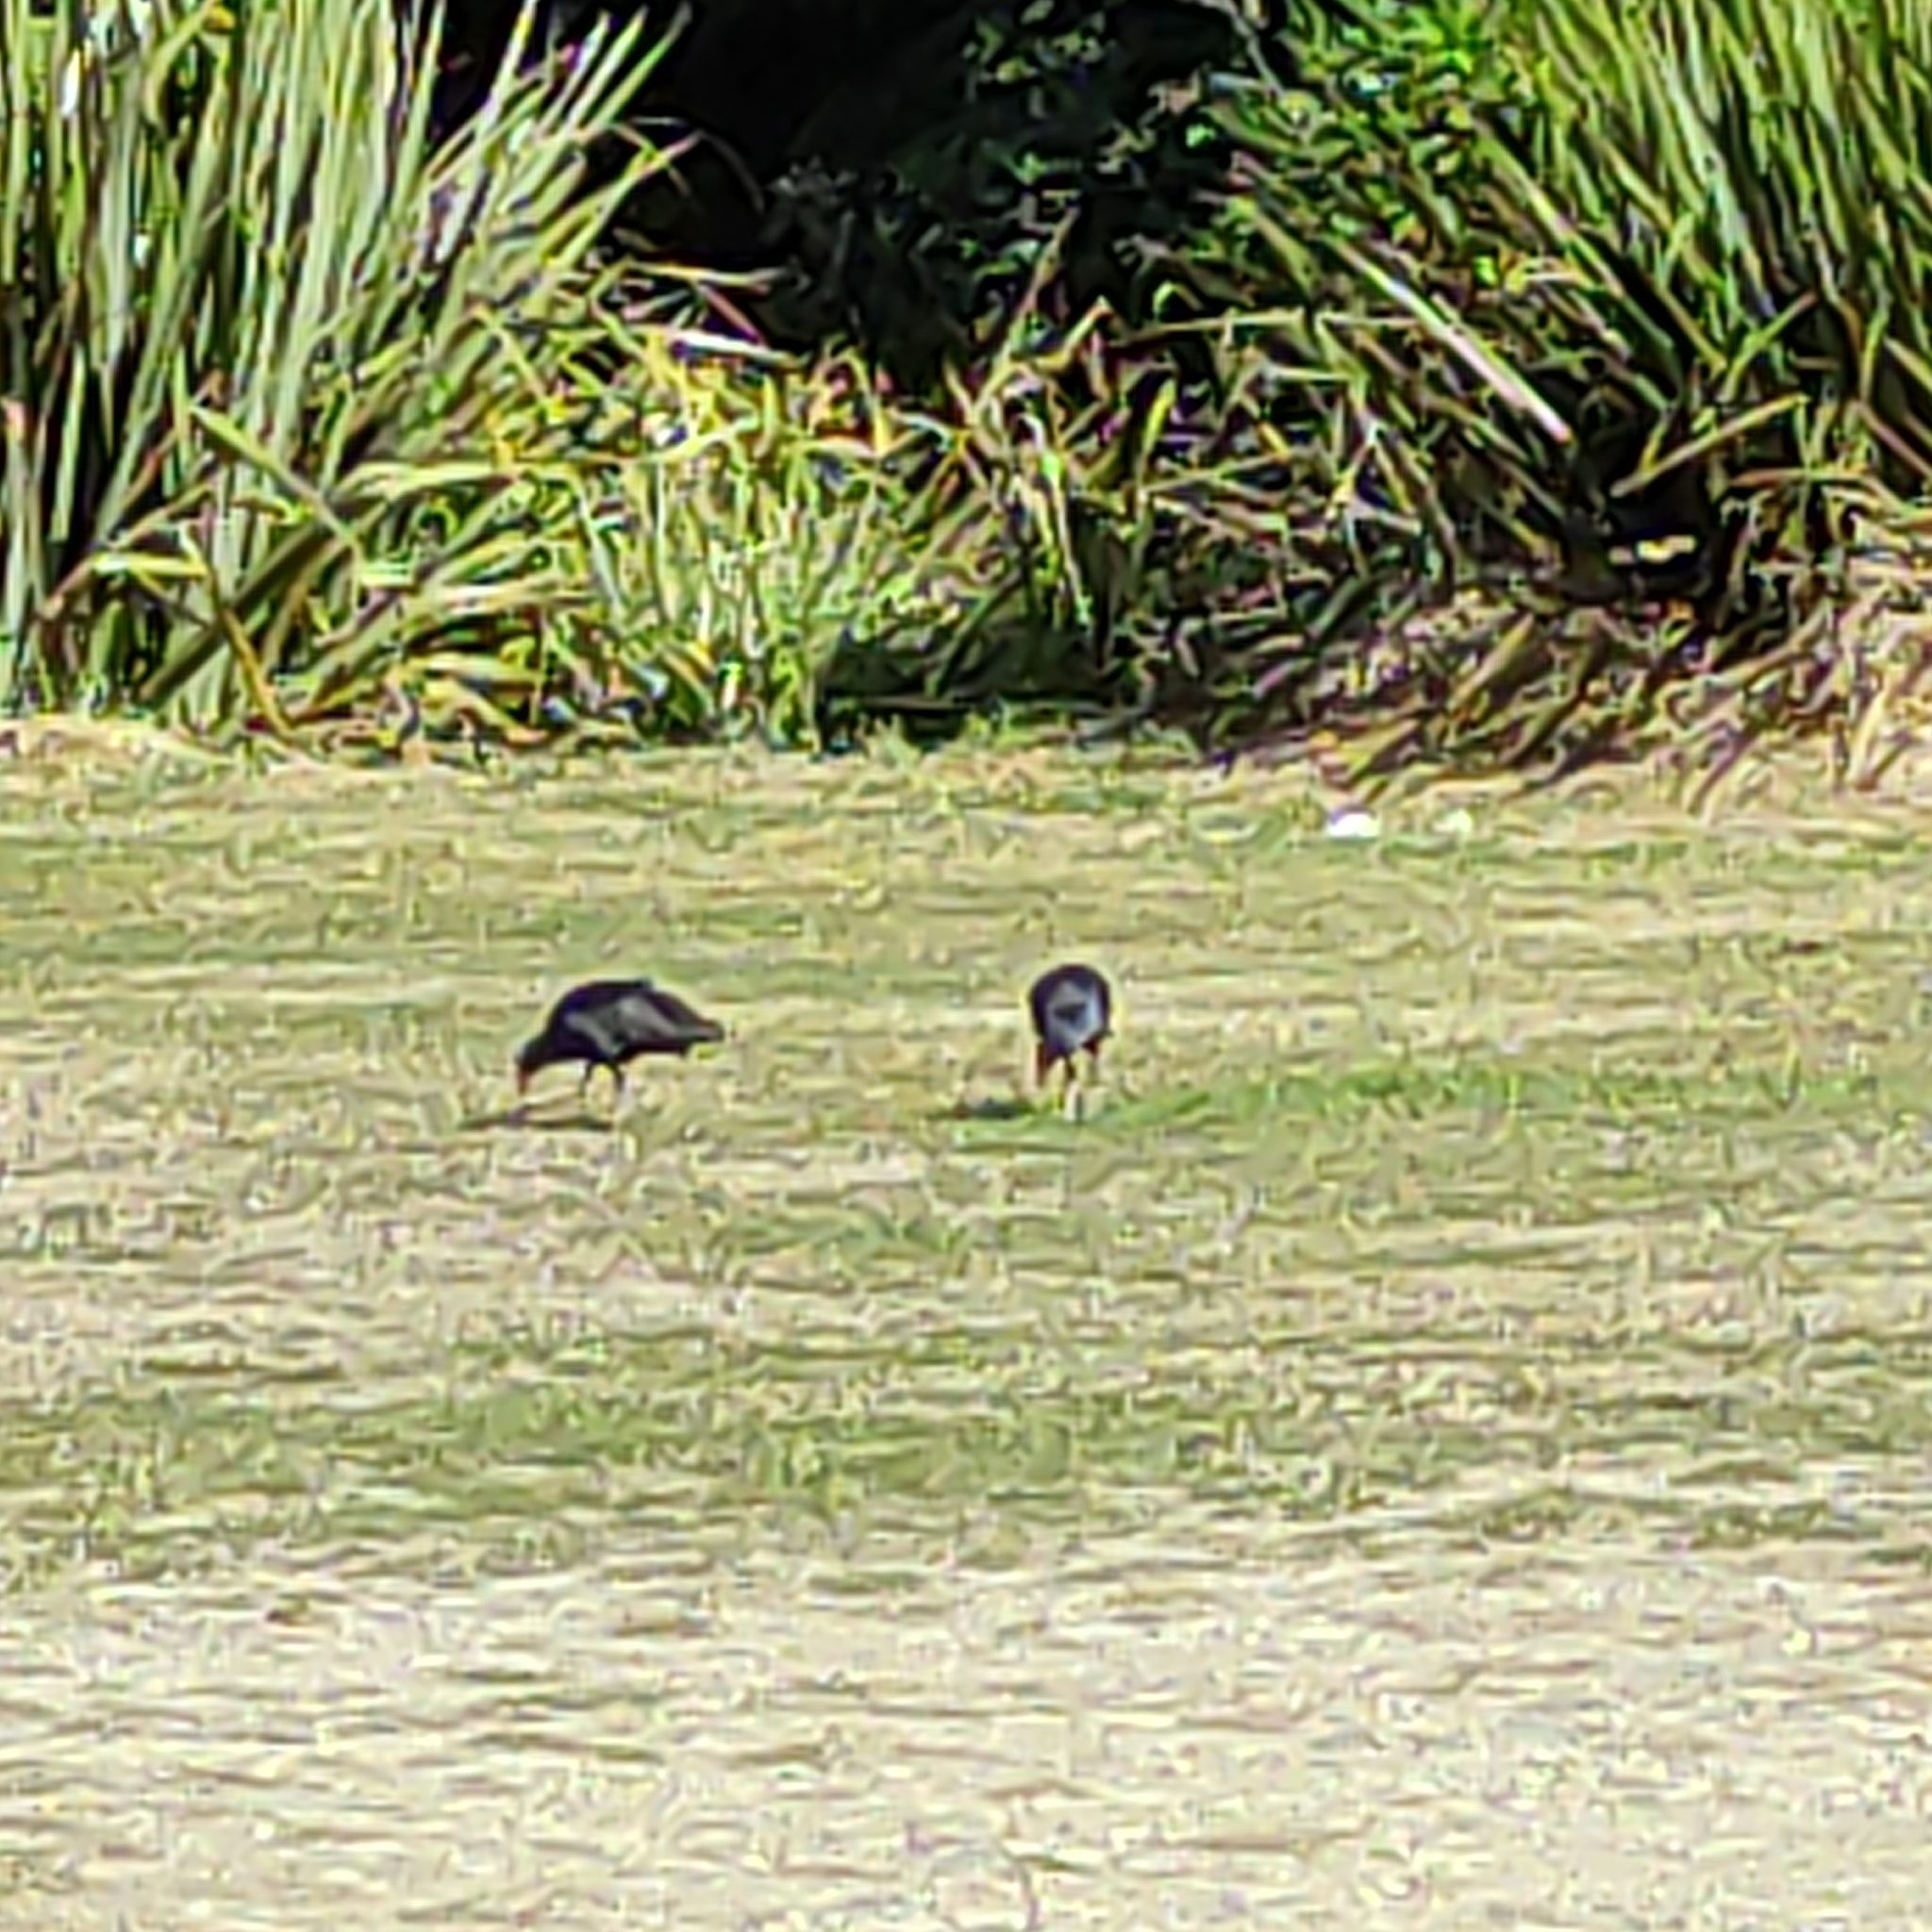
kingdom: Animalia
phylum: Chordata
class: Aves
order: Gruiformes
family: Rallidae
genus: Porphyrio
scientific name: Porphyrio melanotus
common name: Australasian swamphen
